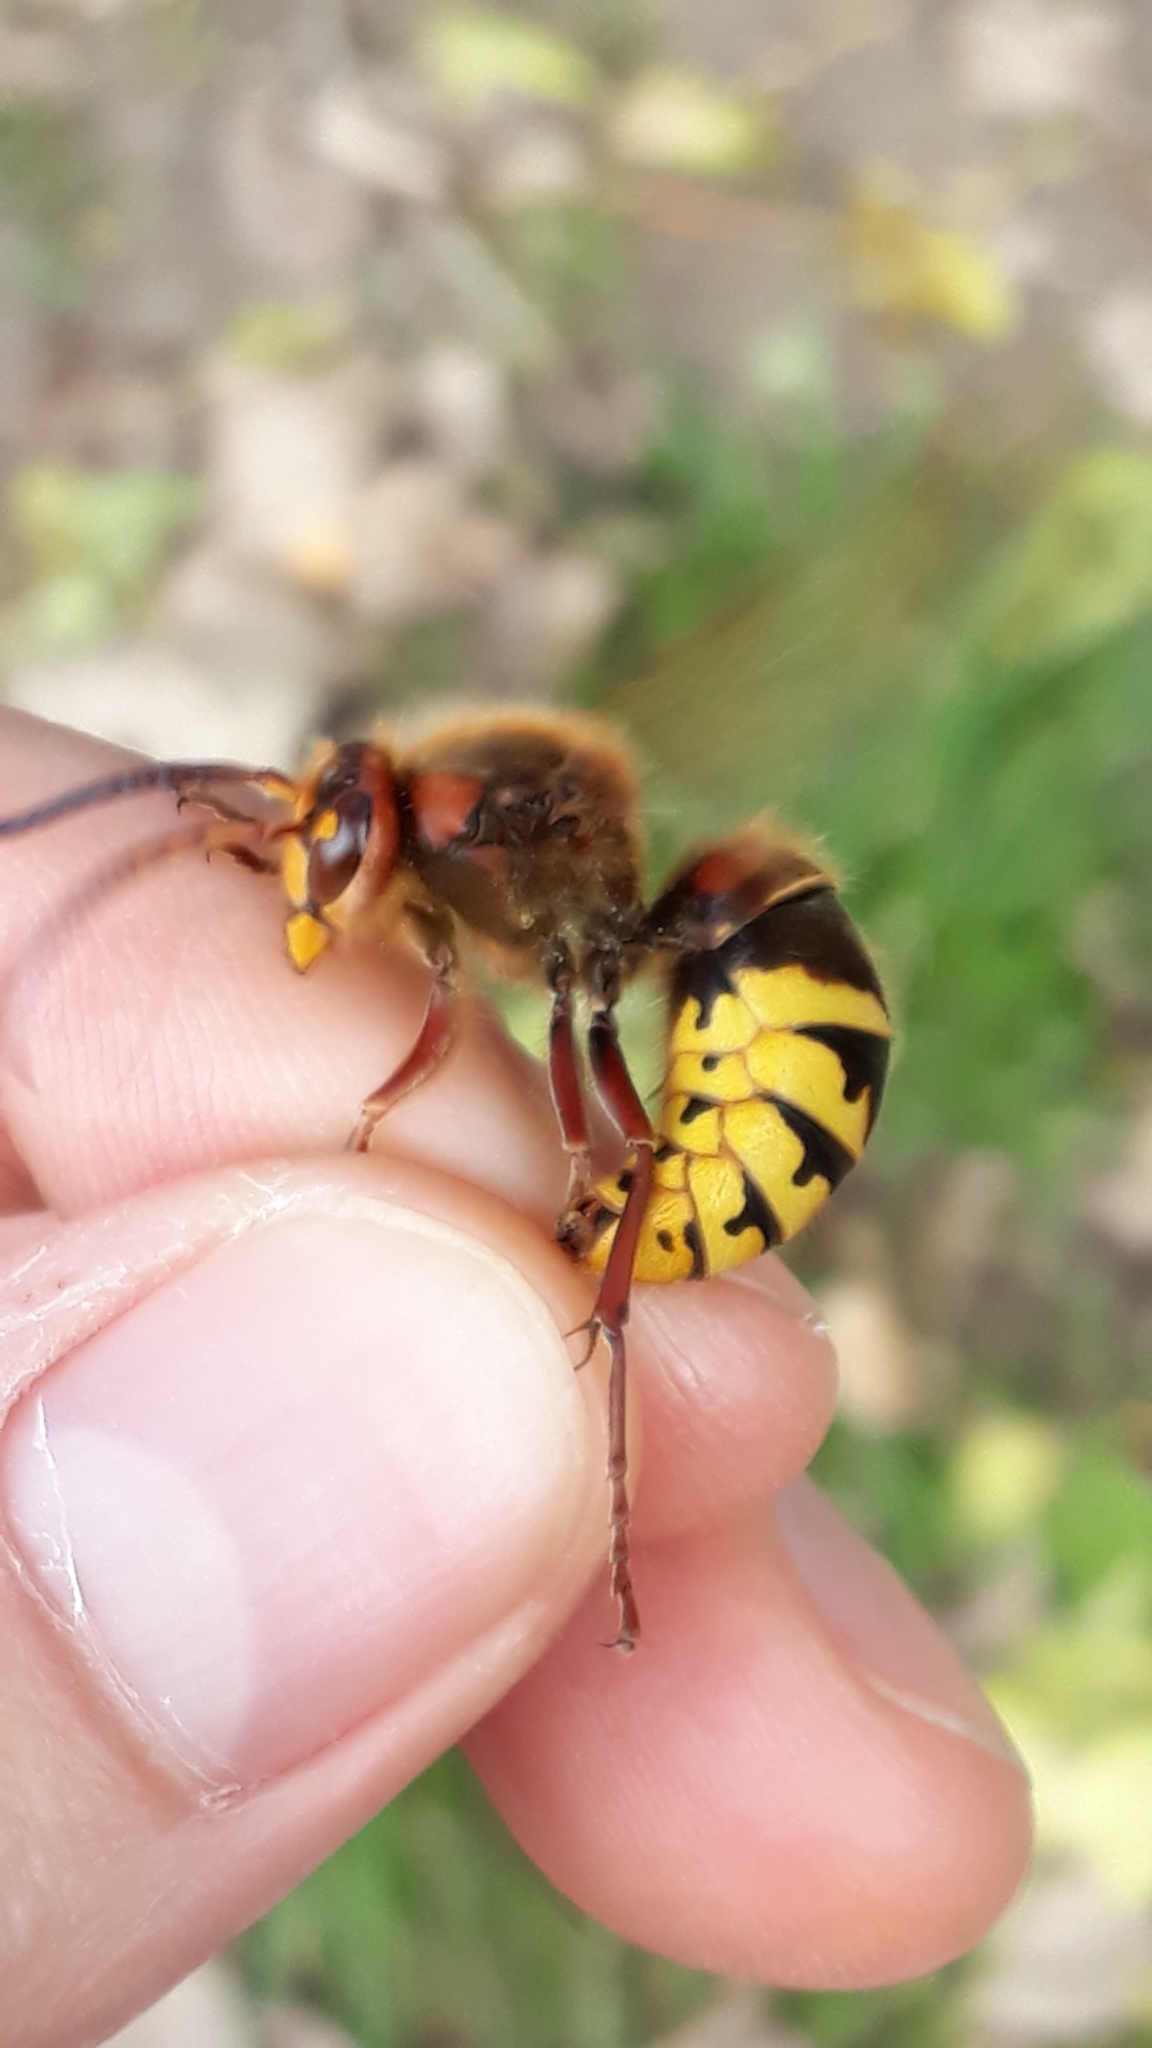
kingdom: Animalia
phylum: Arthropoda
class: Insecta
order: Hymenoptera
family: Vespidae
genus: Vespa
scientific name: Vespa crabro
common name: Hornet
